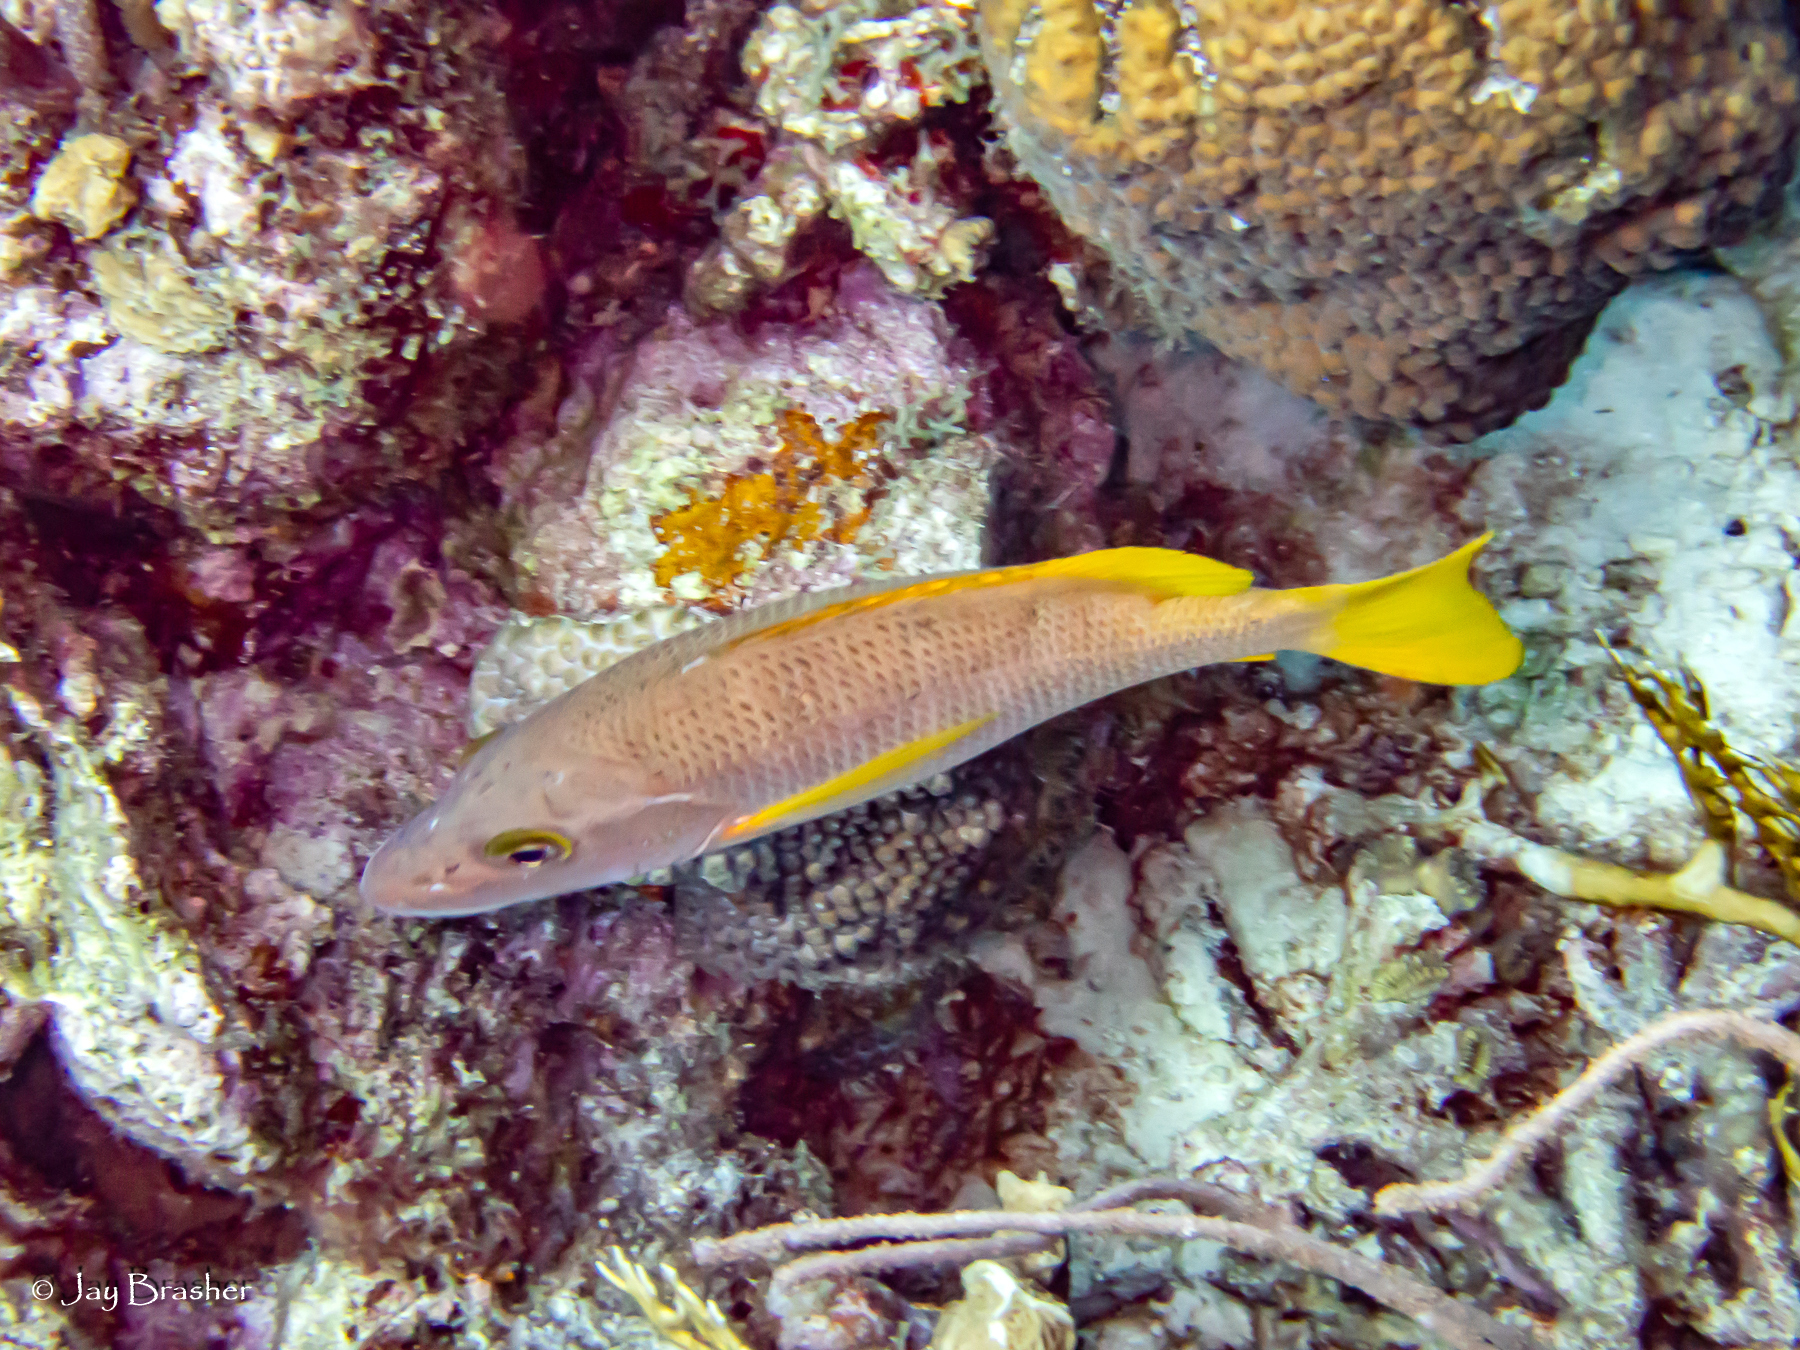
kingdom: Animalia
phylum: Chordata
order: Perciformes
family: Lutjanidae
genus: Lutjanus
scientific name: Lutjanus apodus
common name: Schoolmaster
